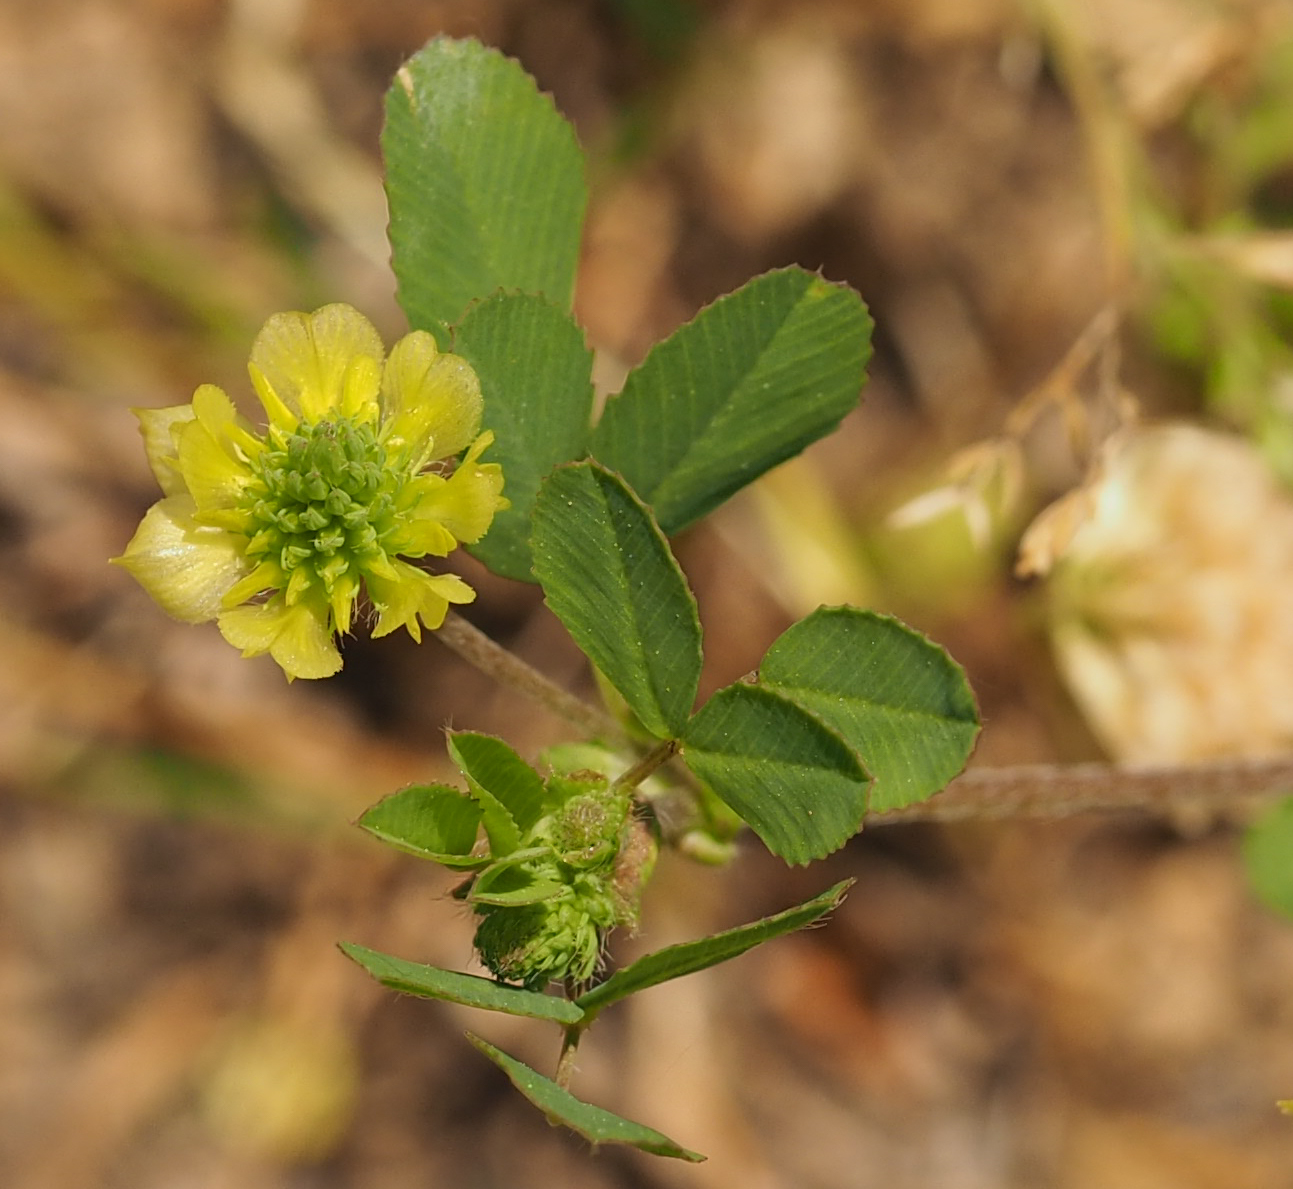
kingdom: Plantae
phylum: Tracheophyta
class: Magnoliopsida
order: Fabales
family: Fabaceae
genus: Trifolium
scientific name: Trifolium campestre
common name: Field clover
